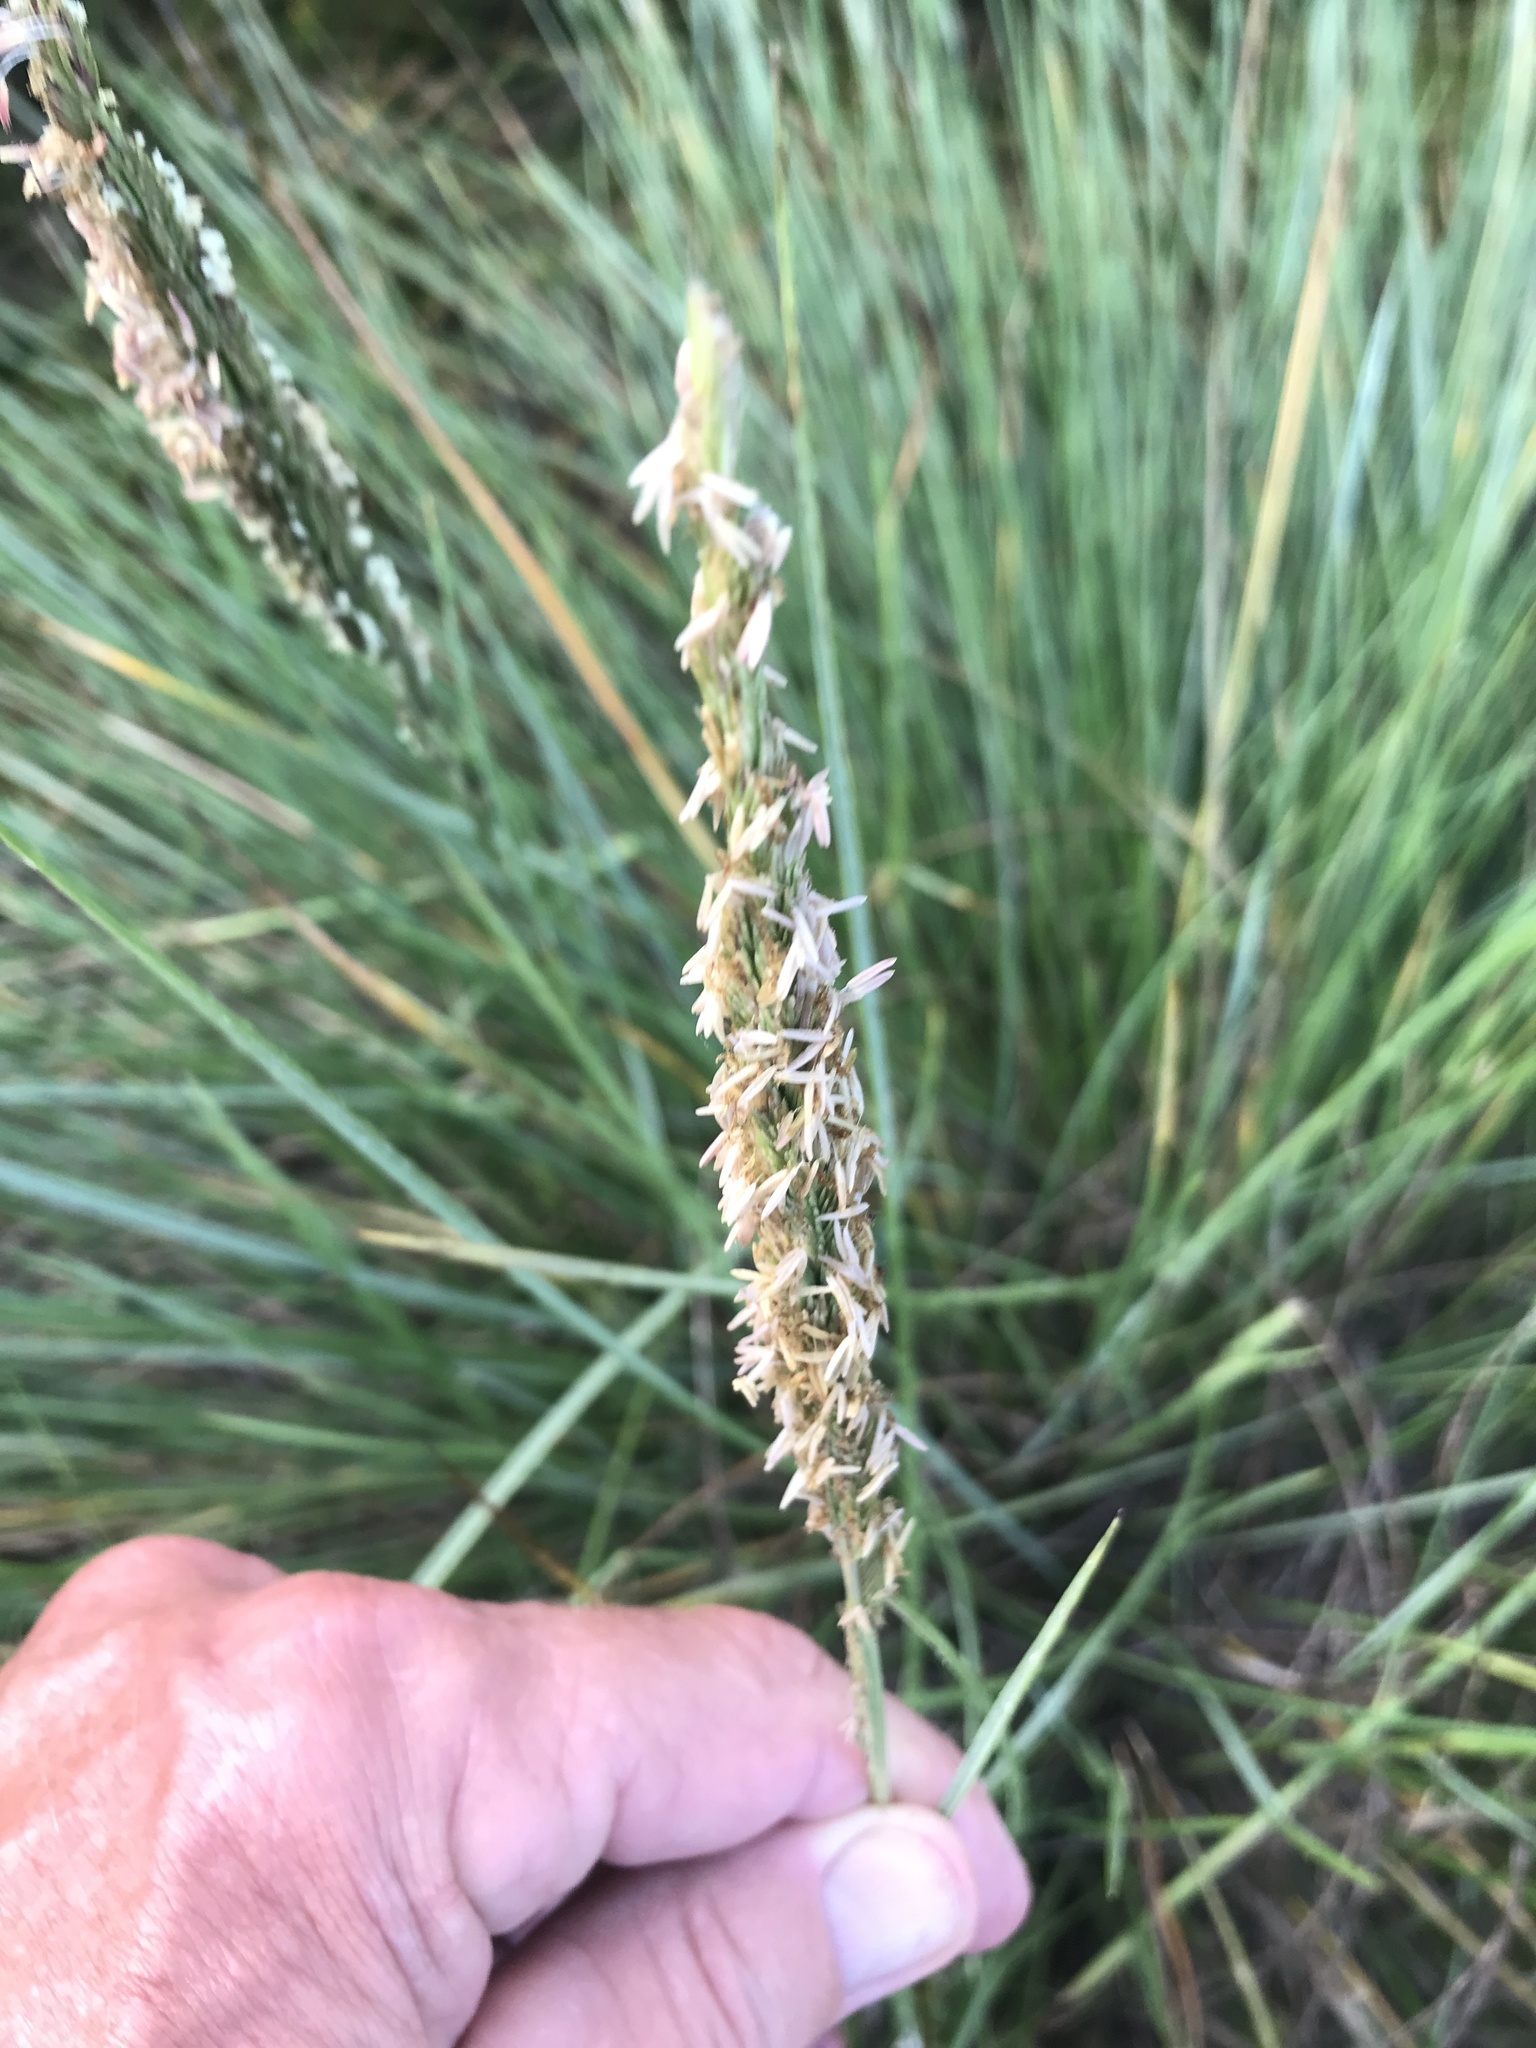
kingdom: Plantae
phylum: Tracheophyta
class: Liliopsida
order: Poales
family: Poaceae
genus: Sporobolus
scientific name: Sporobolus spartinae
